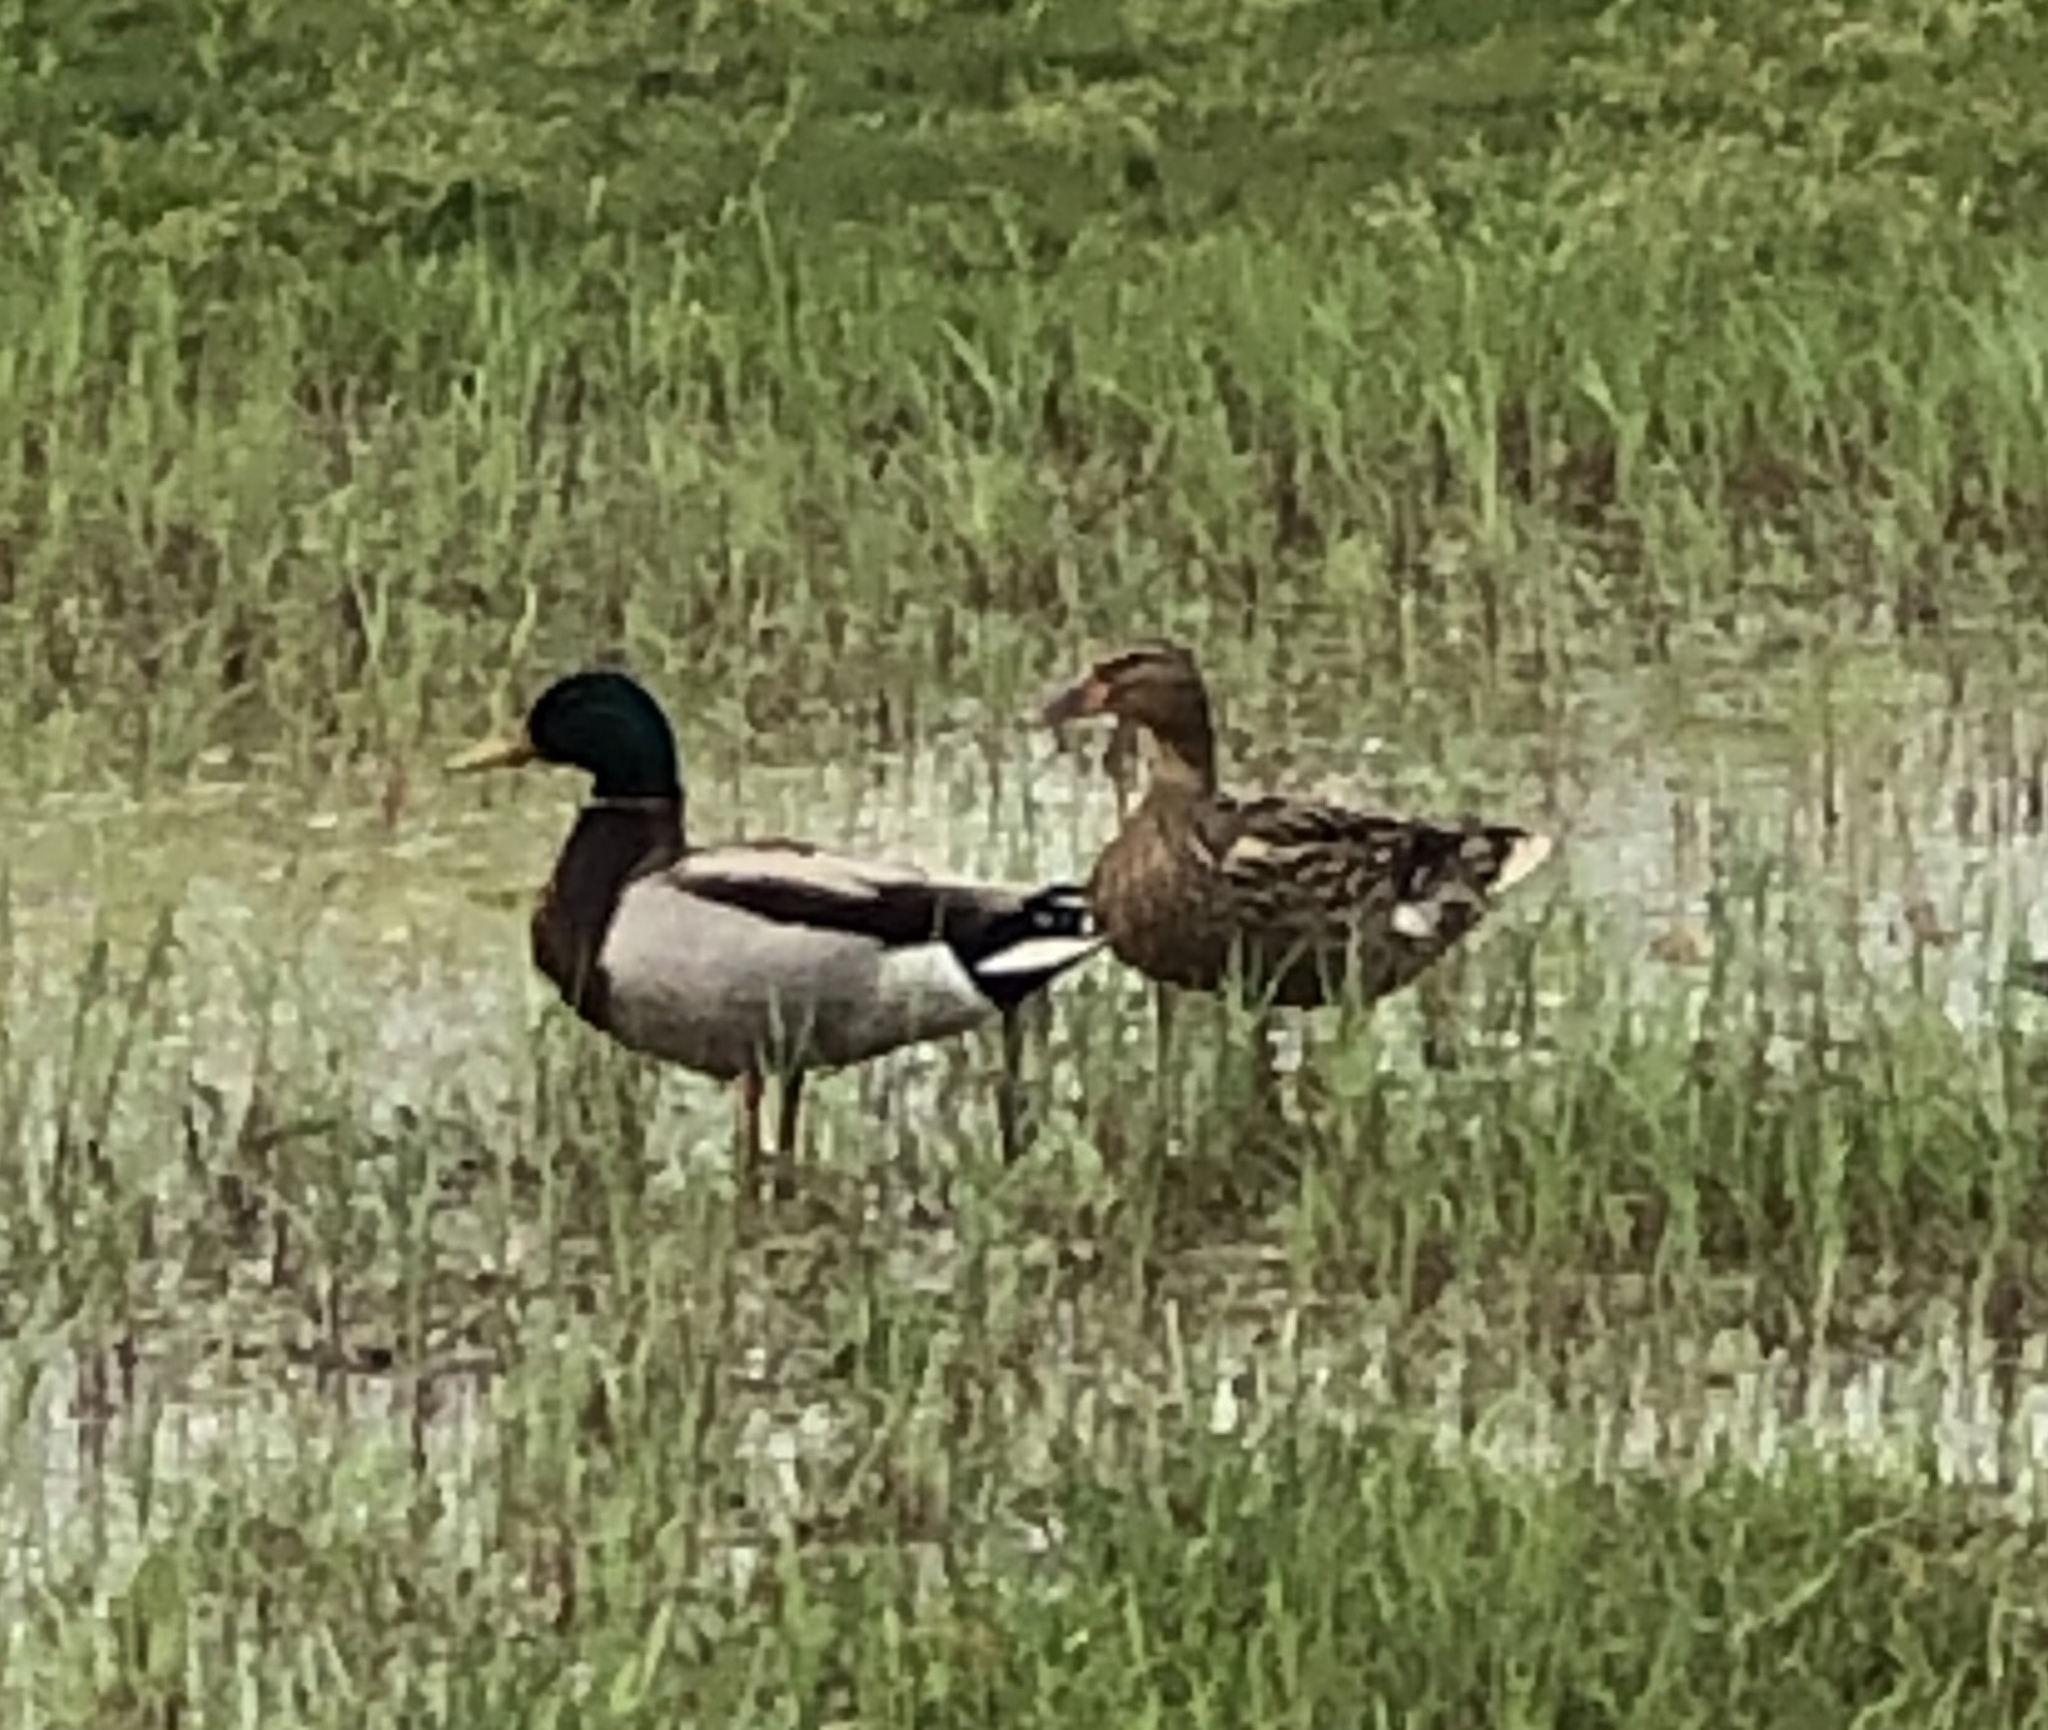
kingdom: Animalia
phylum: Chordata
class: Aves
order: Anseriformes
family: Anatidae
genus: Anas
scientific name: Anas platyrhynchos
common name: Mallard
